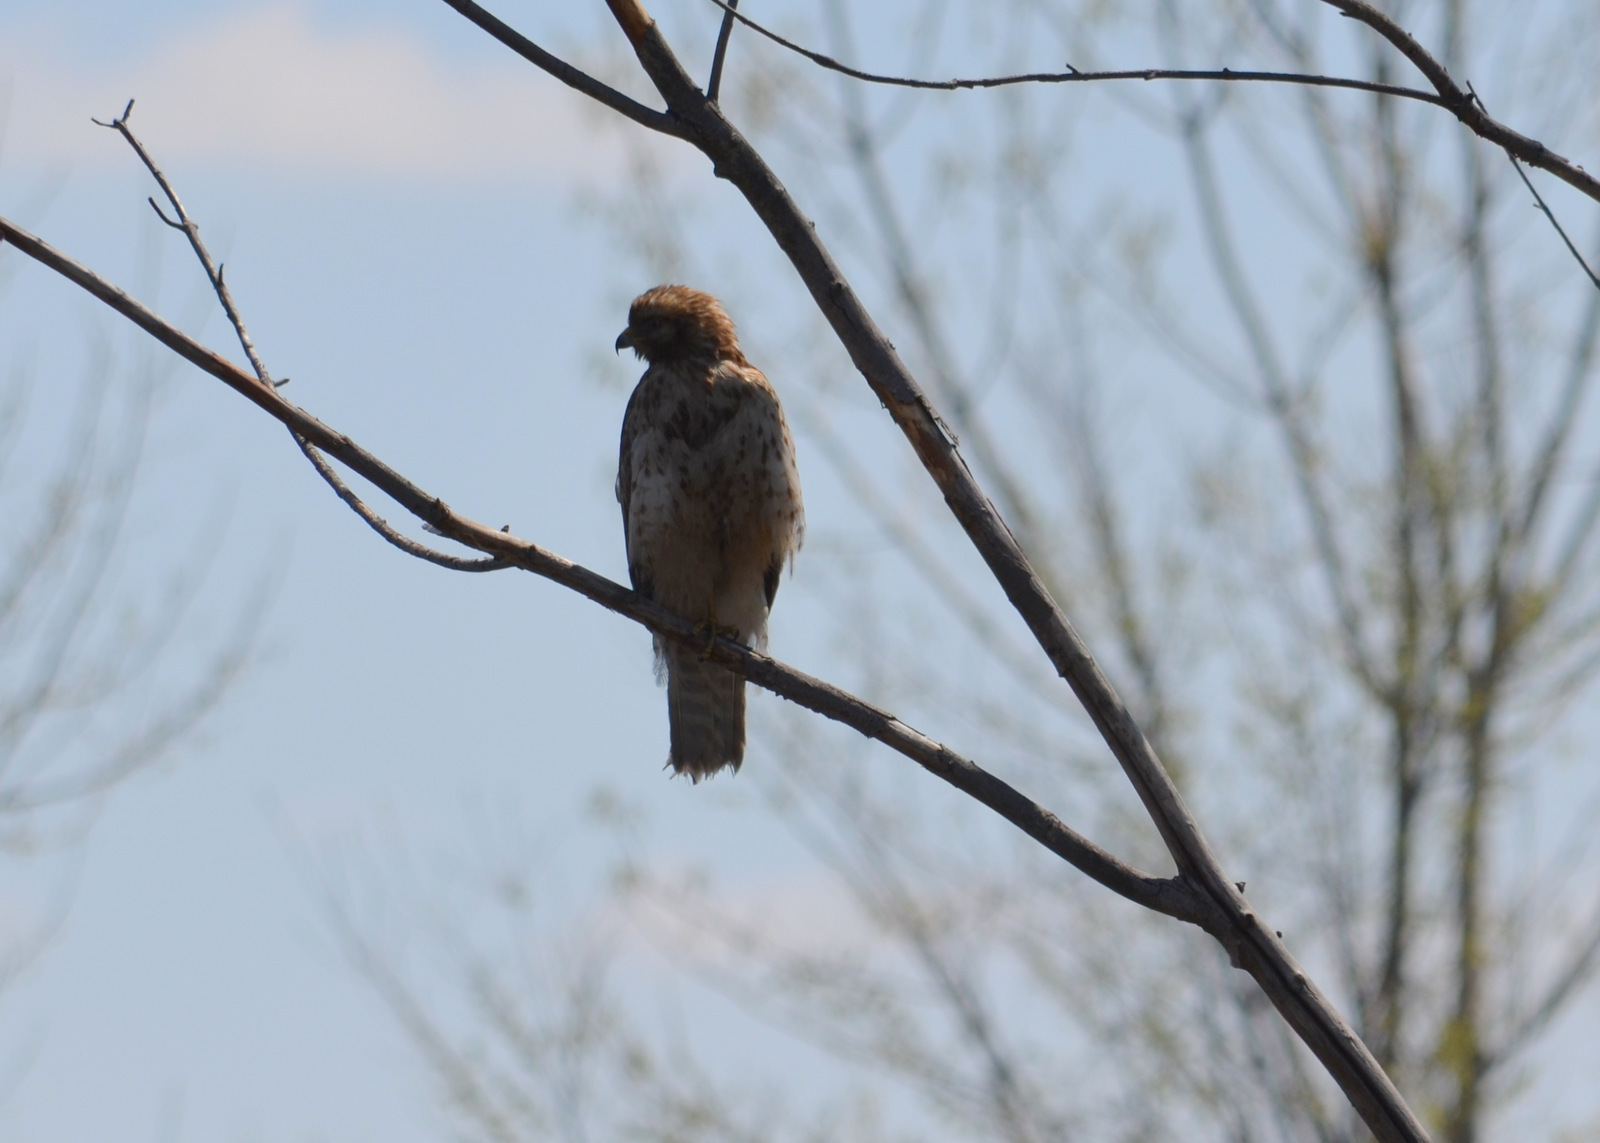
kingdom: Animalia
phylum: Chordata
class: Aves
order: Accipitriformes
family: Accipitridae
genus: Buteo
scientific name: Buteo lineatus
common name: Red-shouldered hawk
